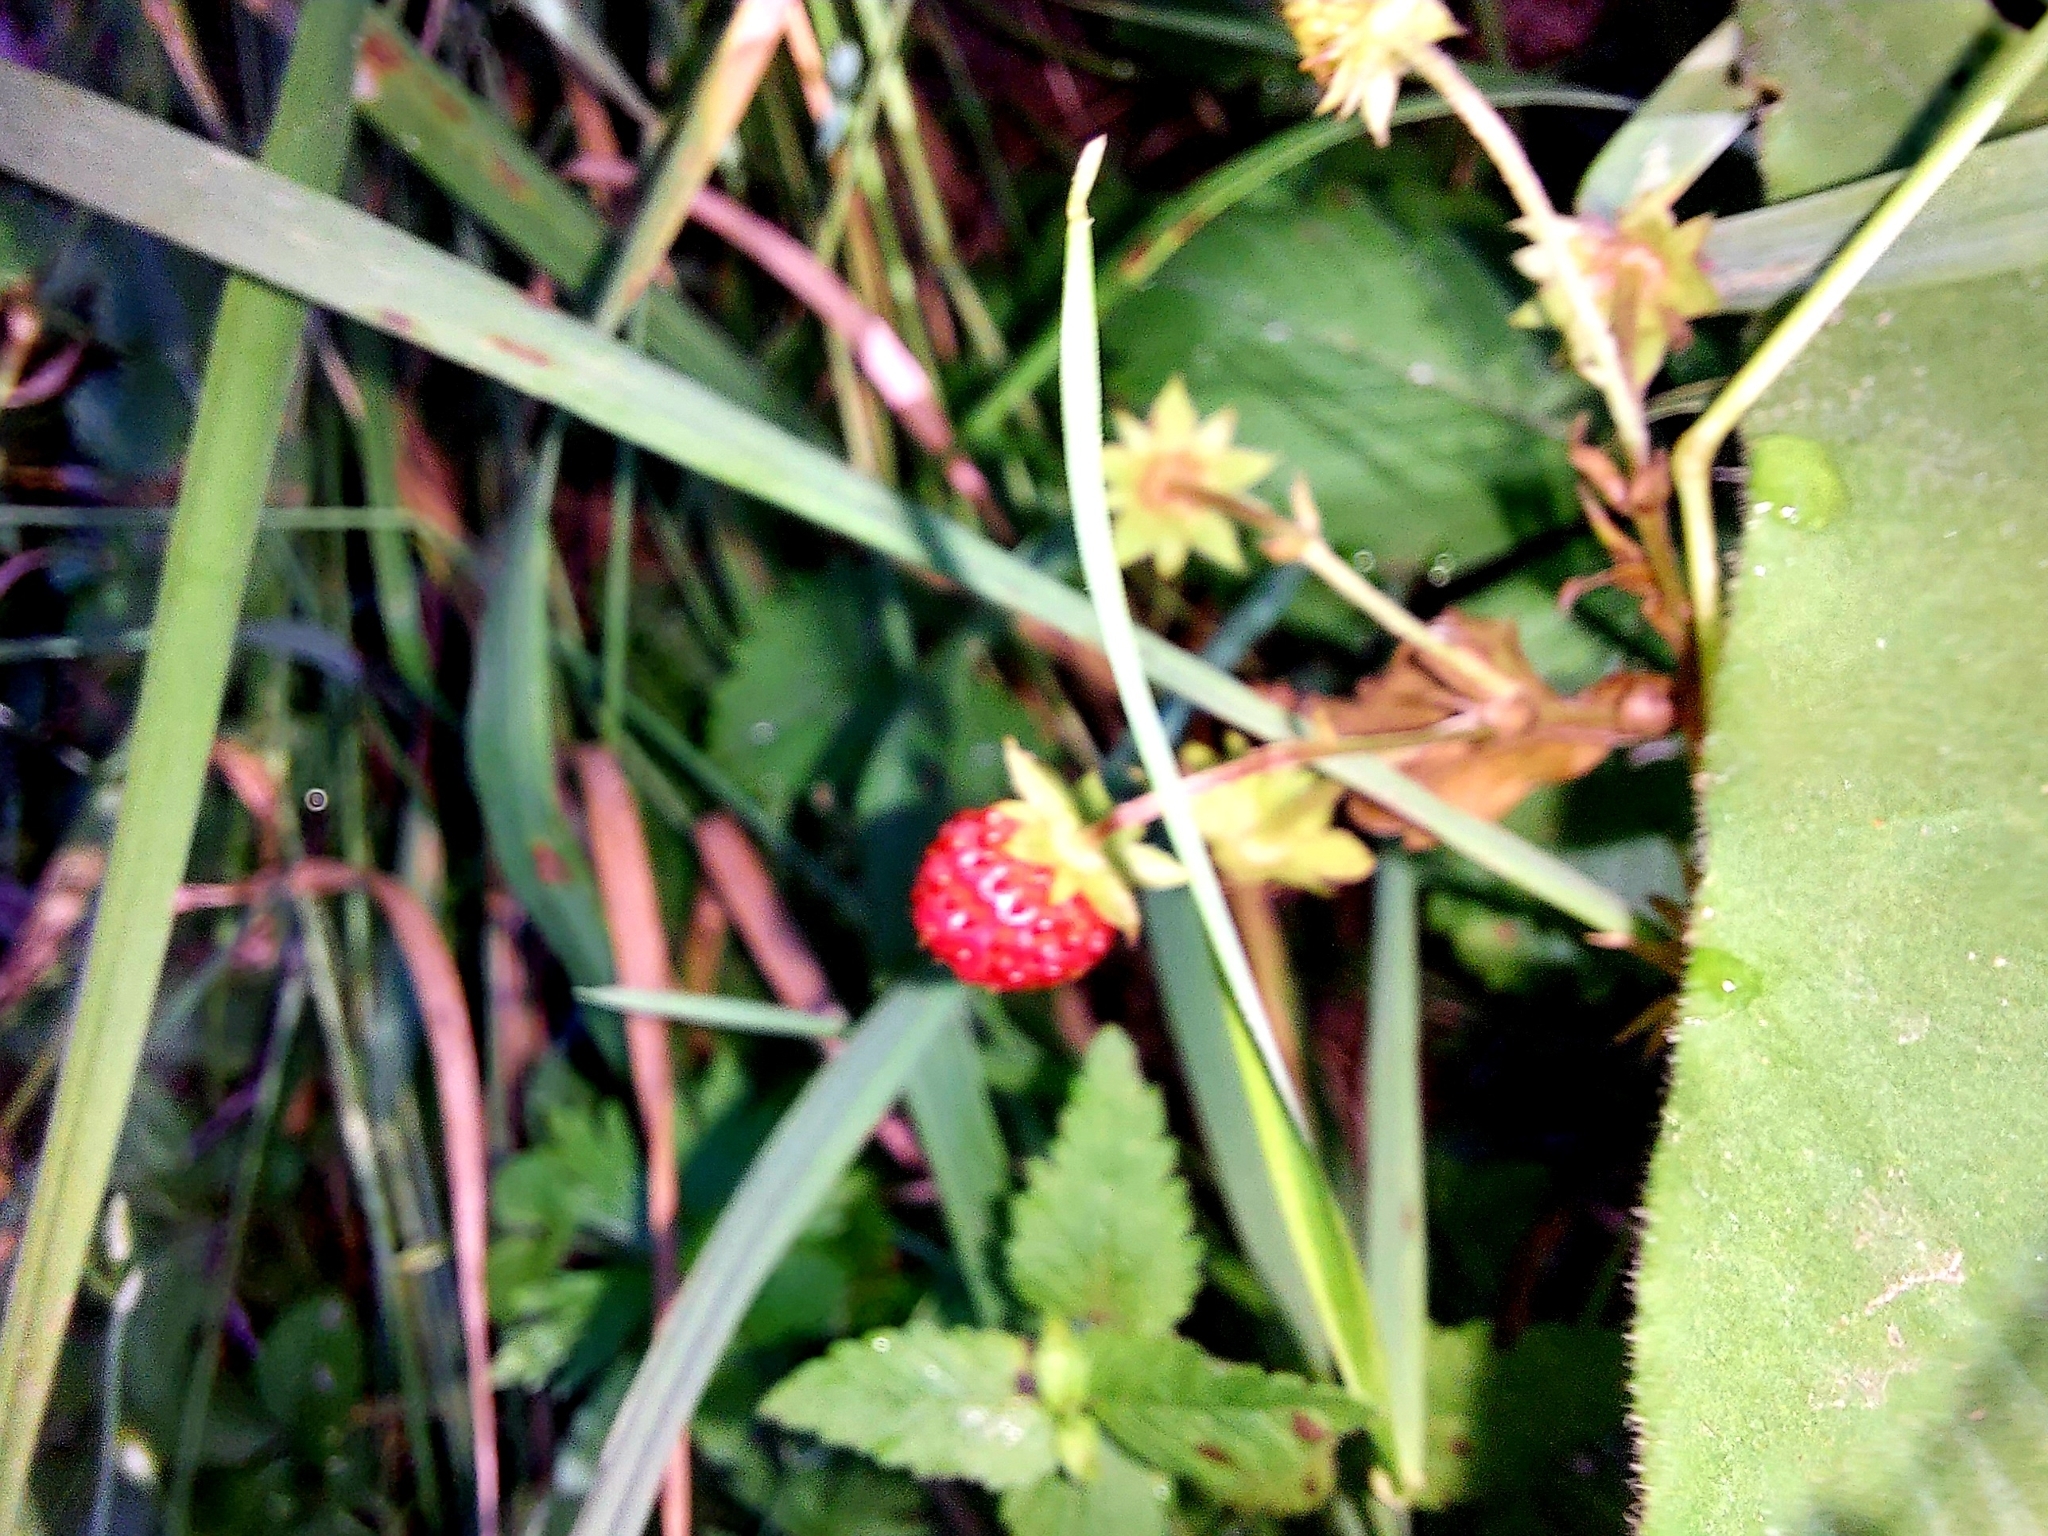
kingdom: Plantae
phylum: Tracheophyta
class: Magnoliopsida
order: Rosales
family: Rosaceae
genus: Fragaria
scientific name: Fragaria vesca
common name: Wild strawberry
